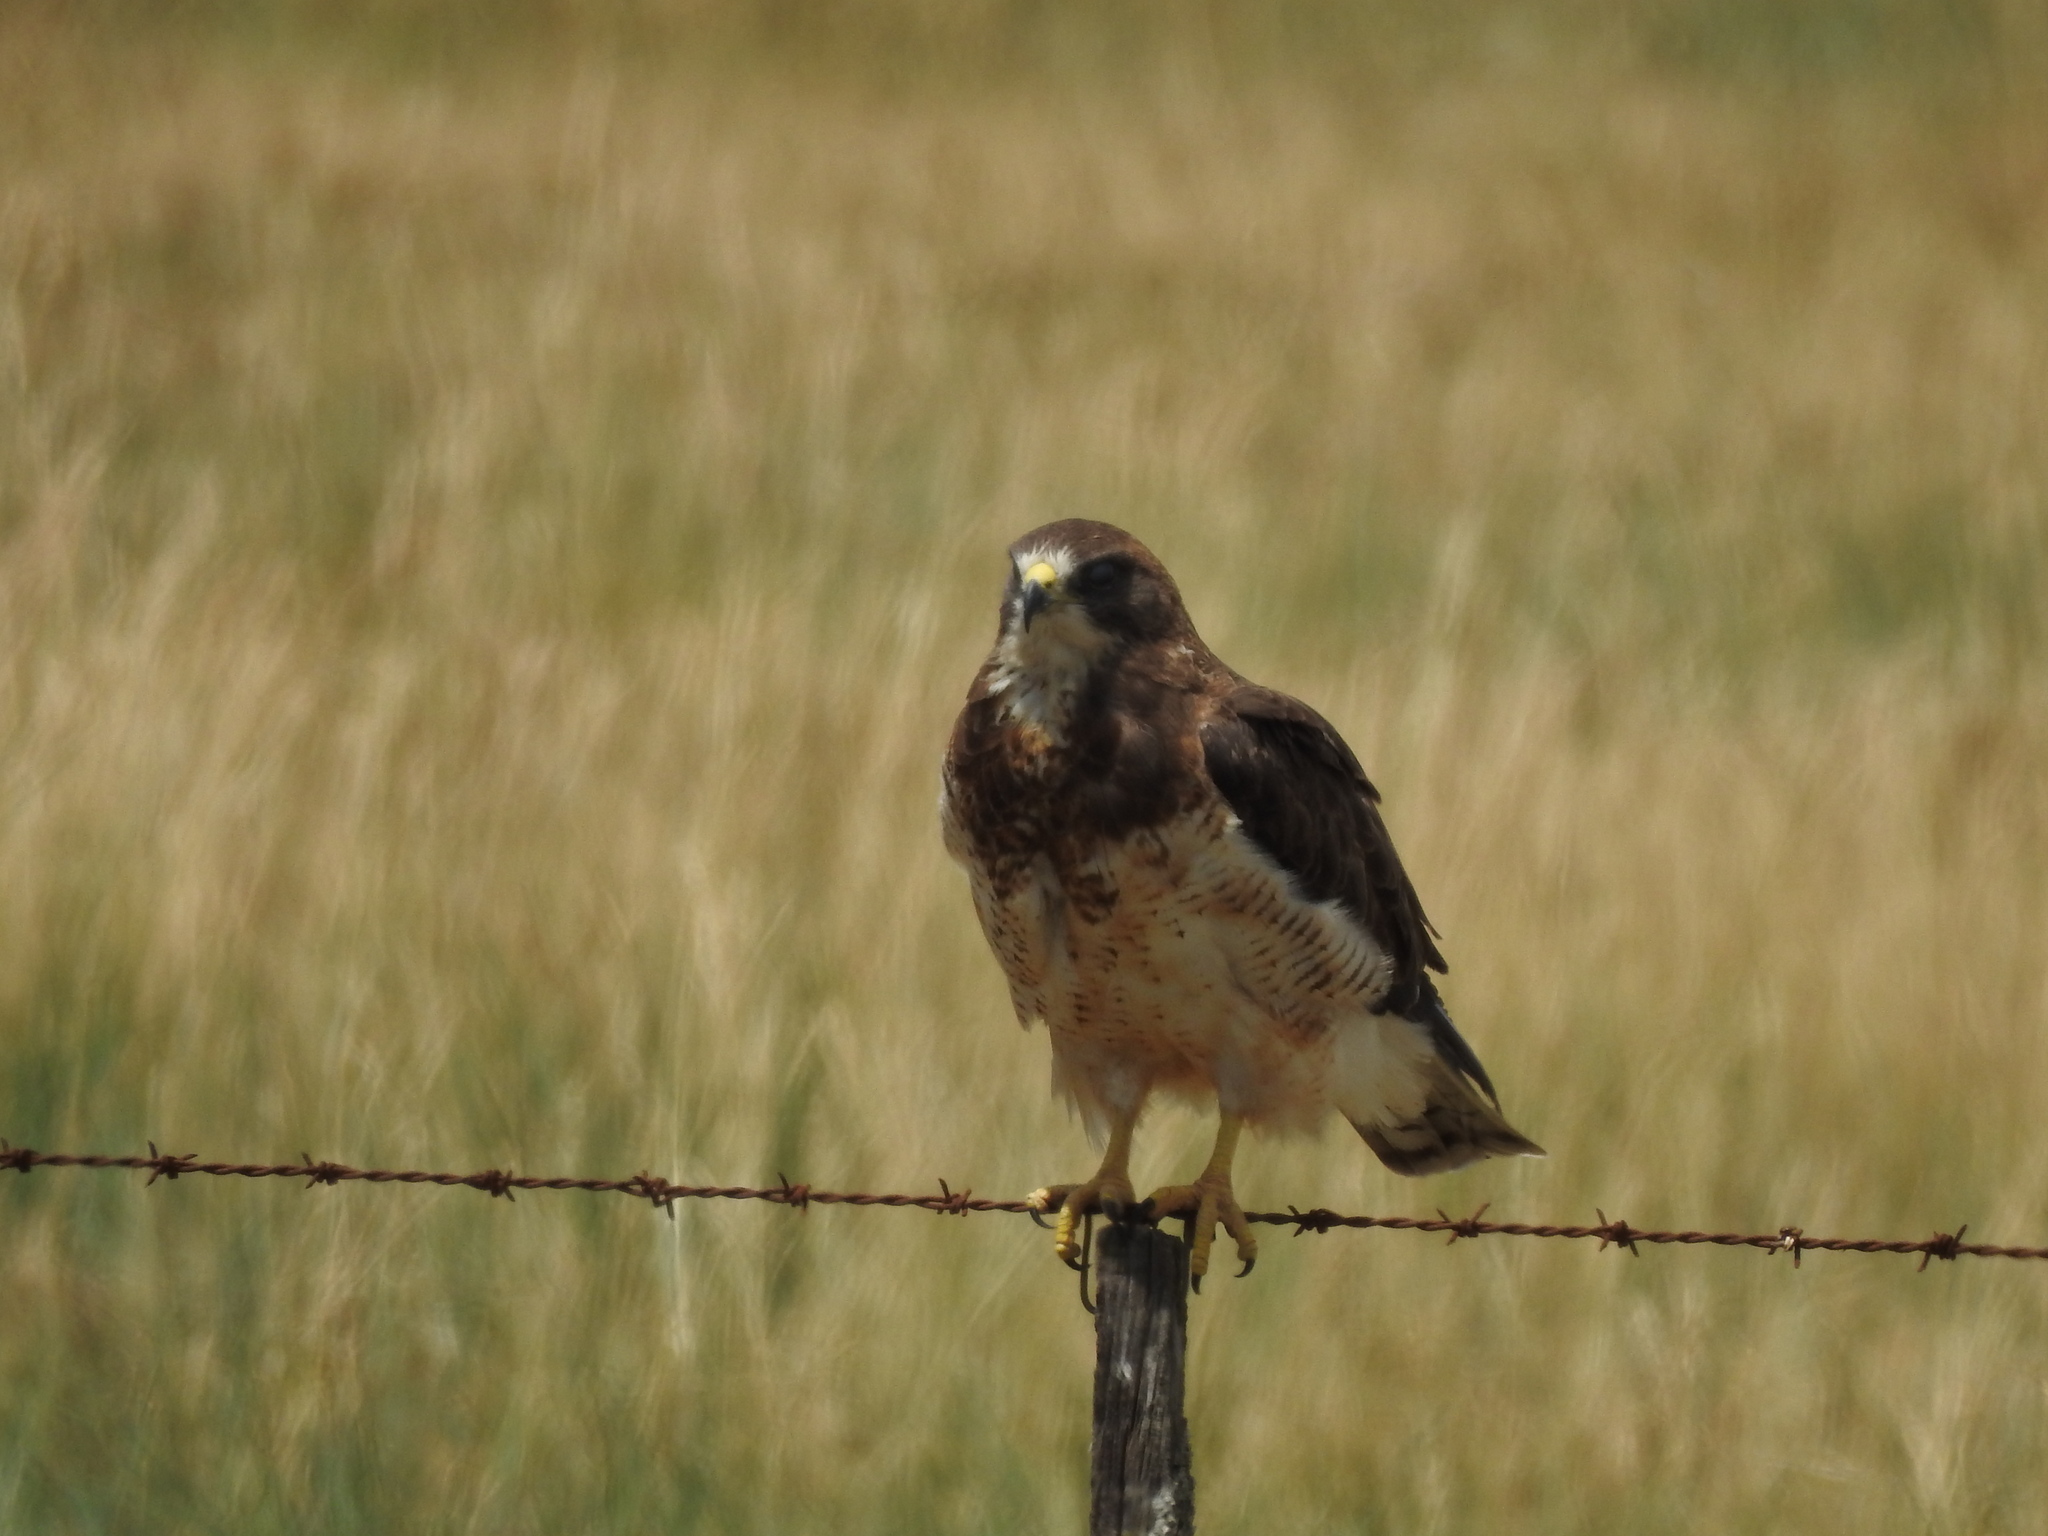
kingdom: Animalia
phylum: Chordata
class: Aves
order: Accipitriformes
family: Accipitridae
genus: Buteo
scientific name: Buteo swainsoni
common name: Swainson's hawk
